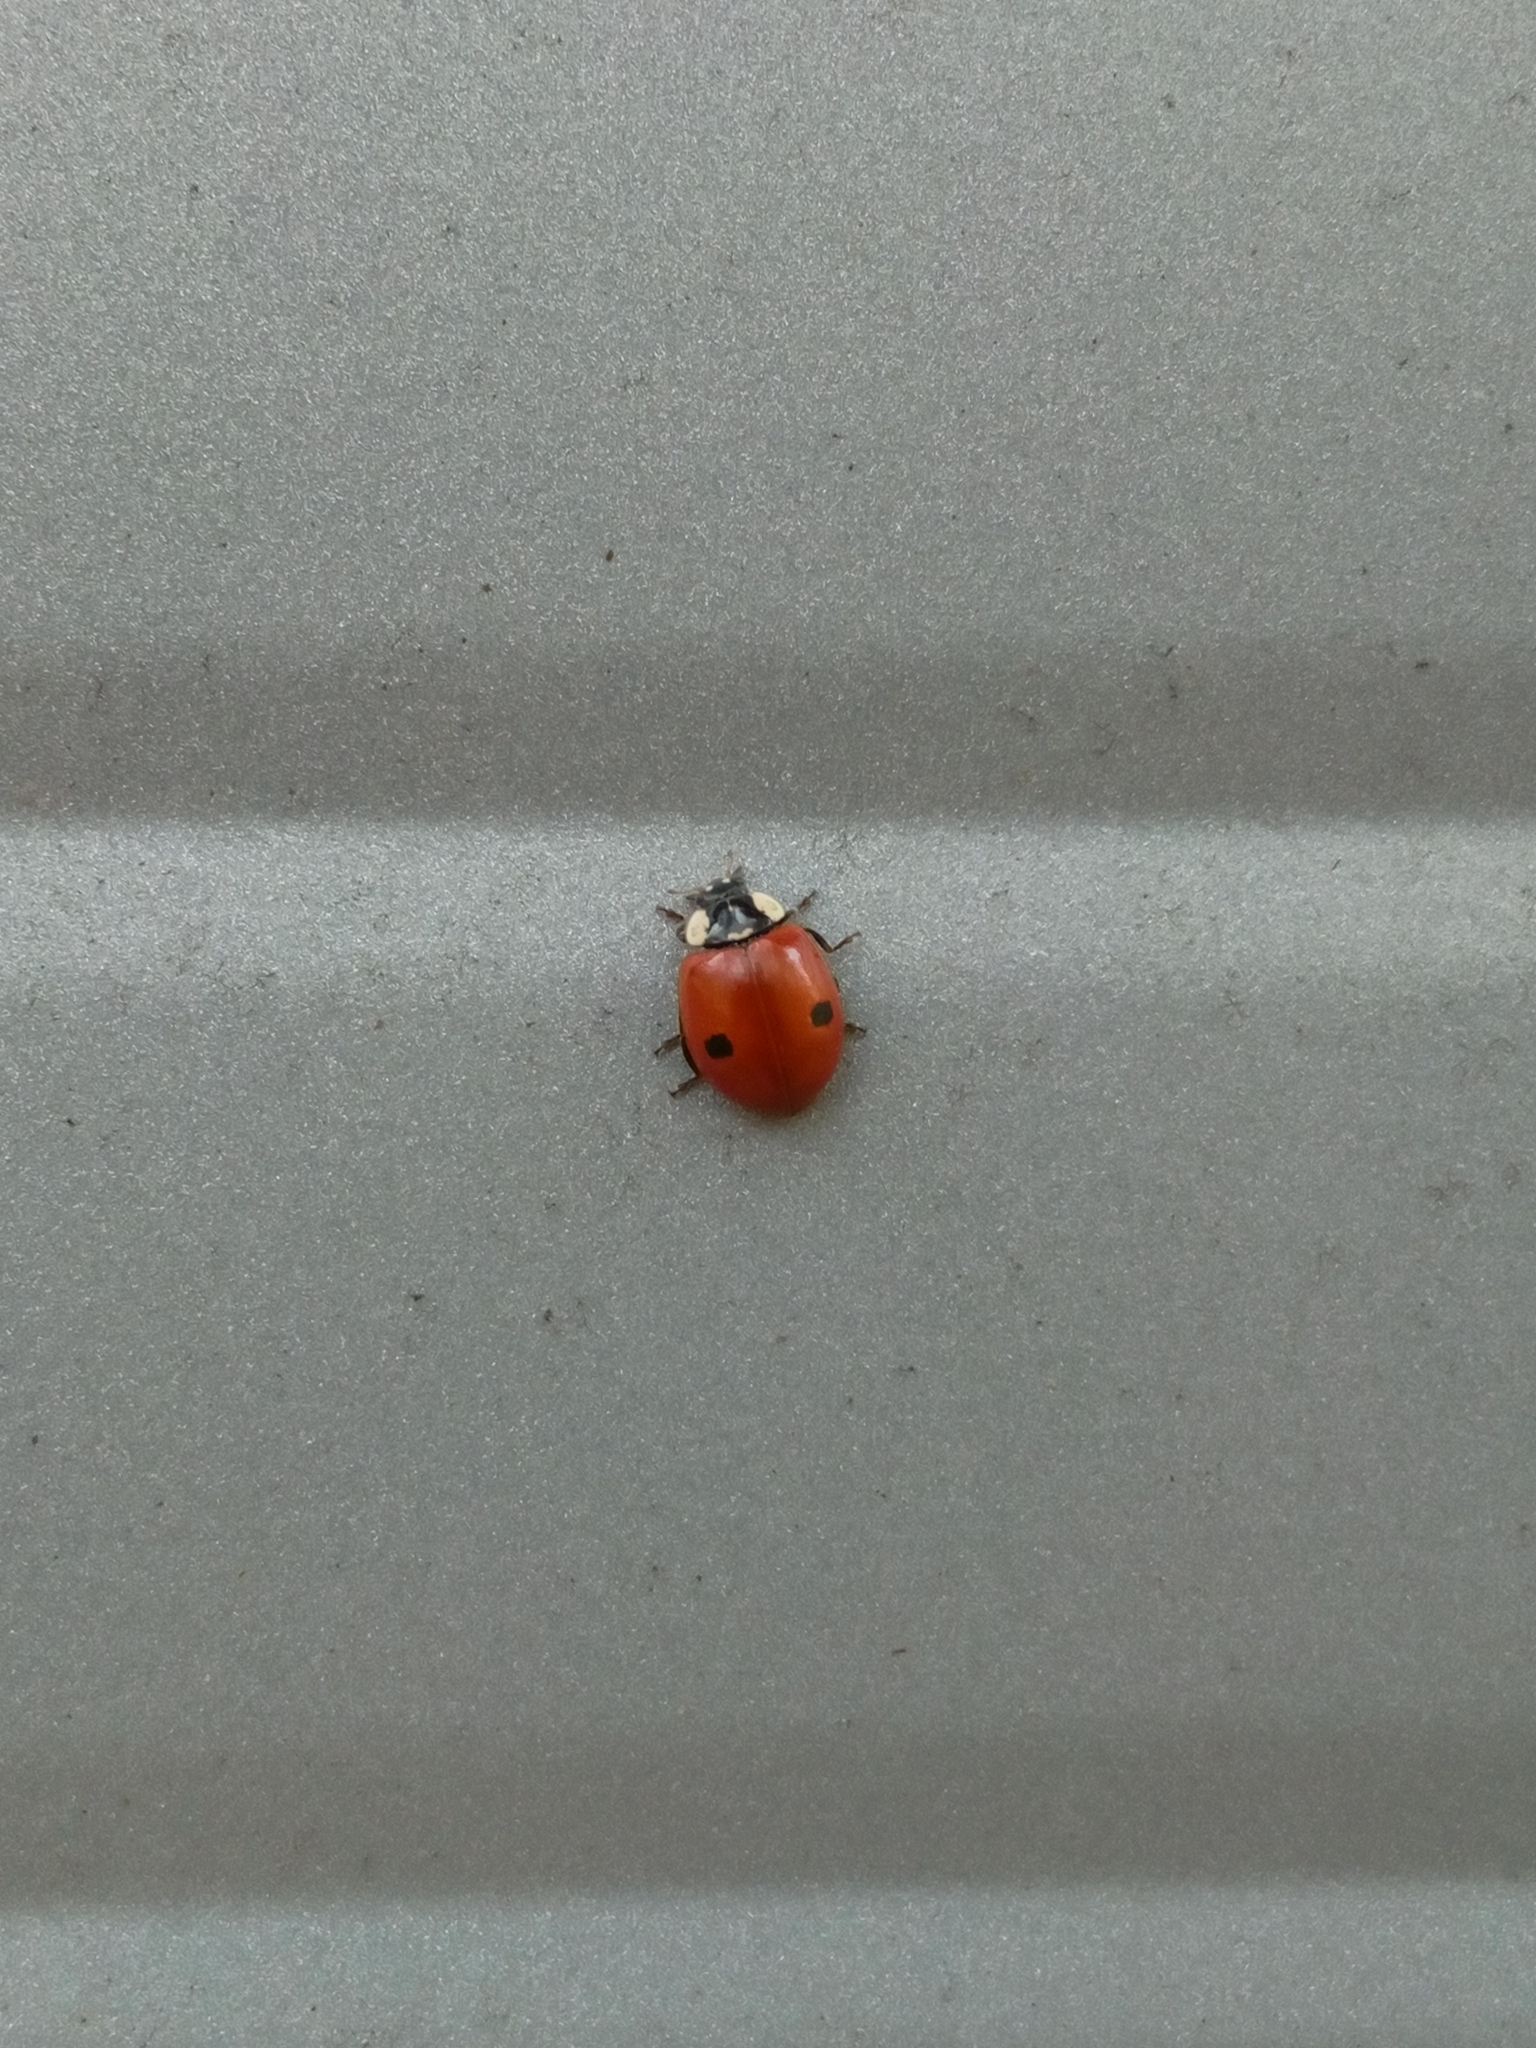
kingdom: Animalia
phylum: Arthropoda
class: Insecta
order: Coleoptera
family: Coccinellidae
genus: Adalia
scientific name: Adalia bipunctata
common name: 2-spot ladybird
